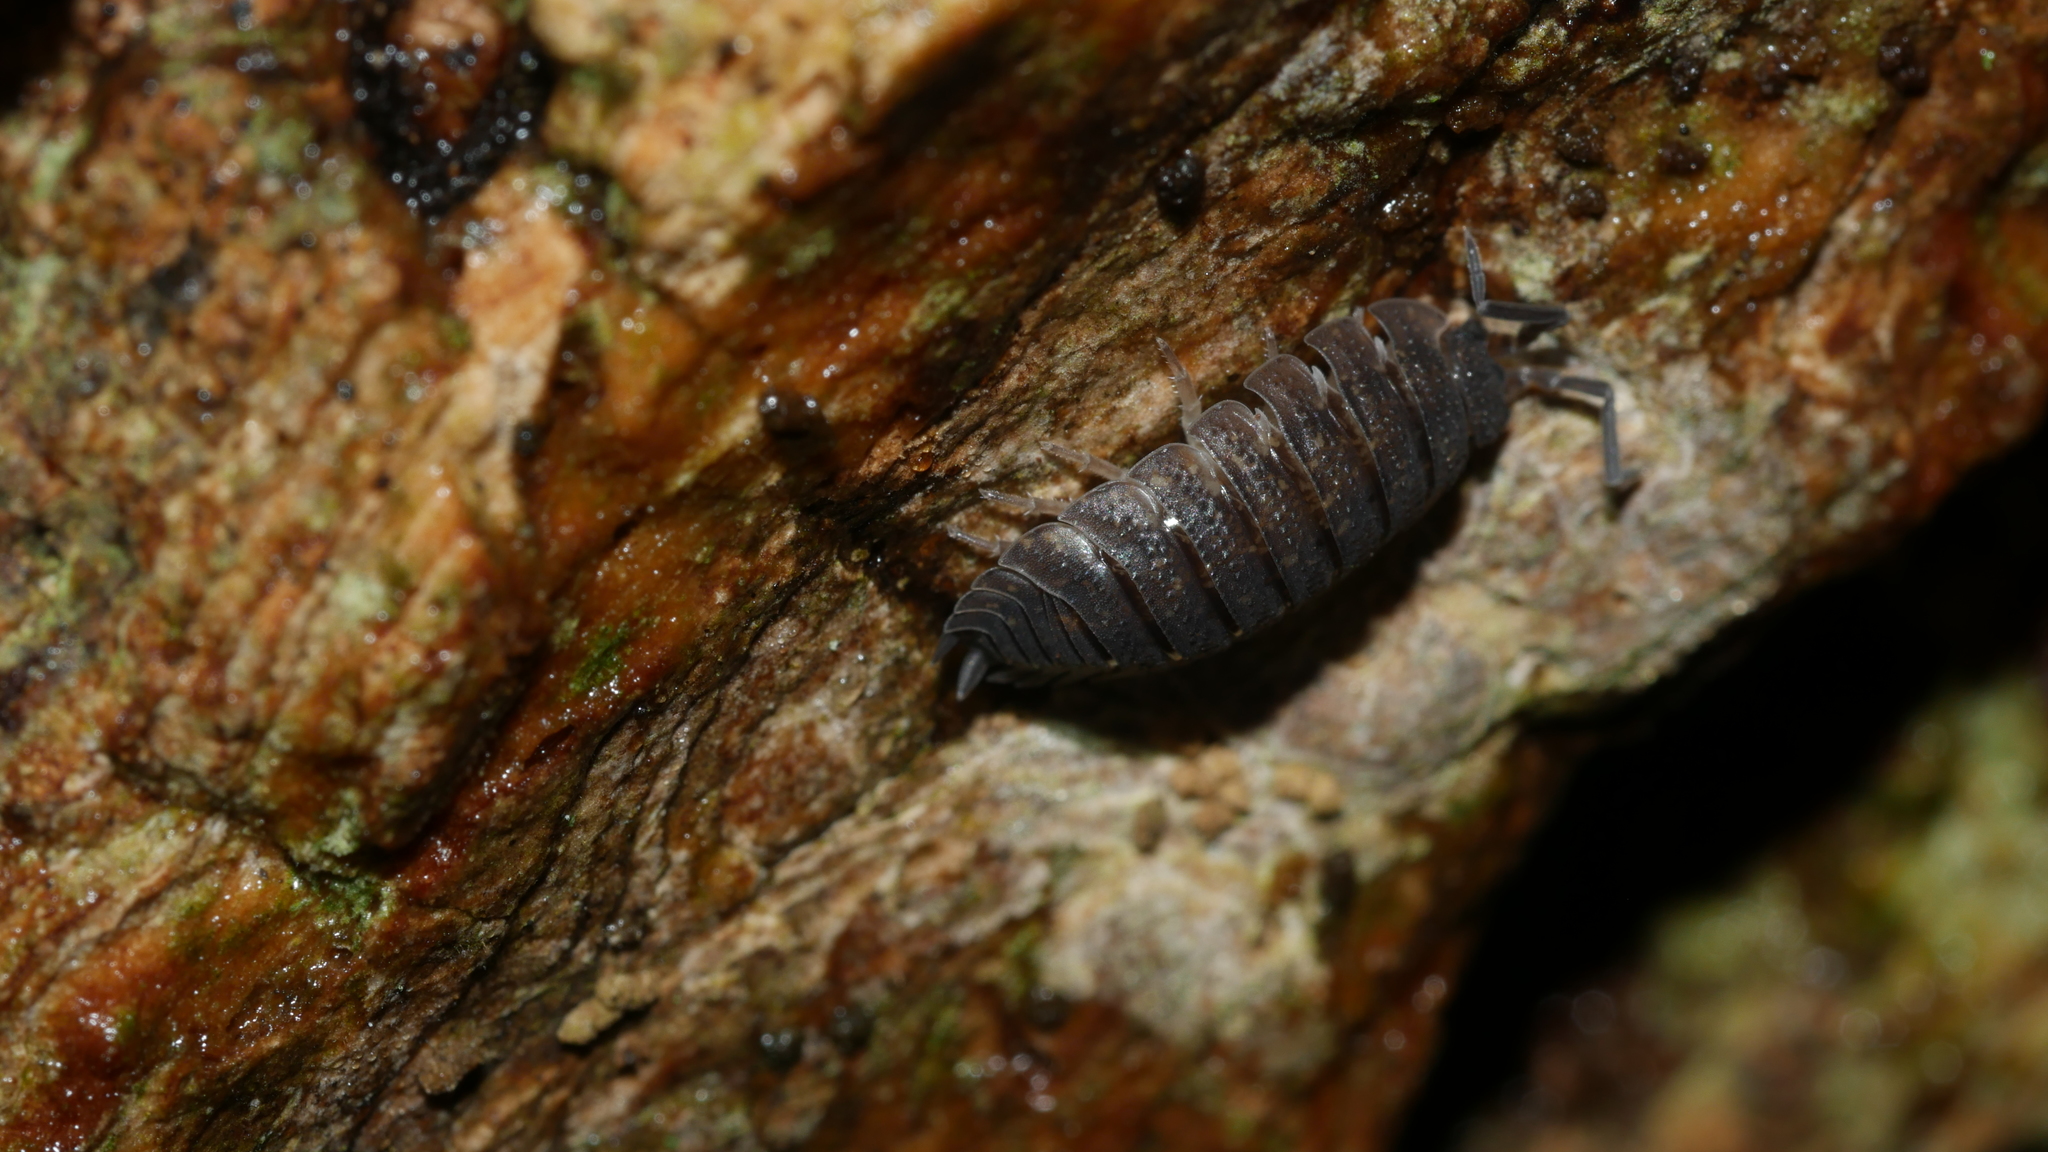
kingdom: Animalia
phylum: Arthropoda
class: Malacostraca
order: Isopoda
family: Porcellionidae
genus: Porcellio
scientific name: Porcellio scaber
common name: Common rough woodlouse
